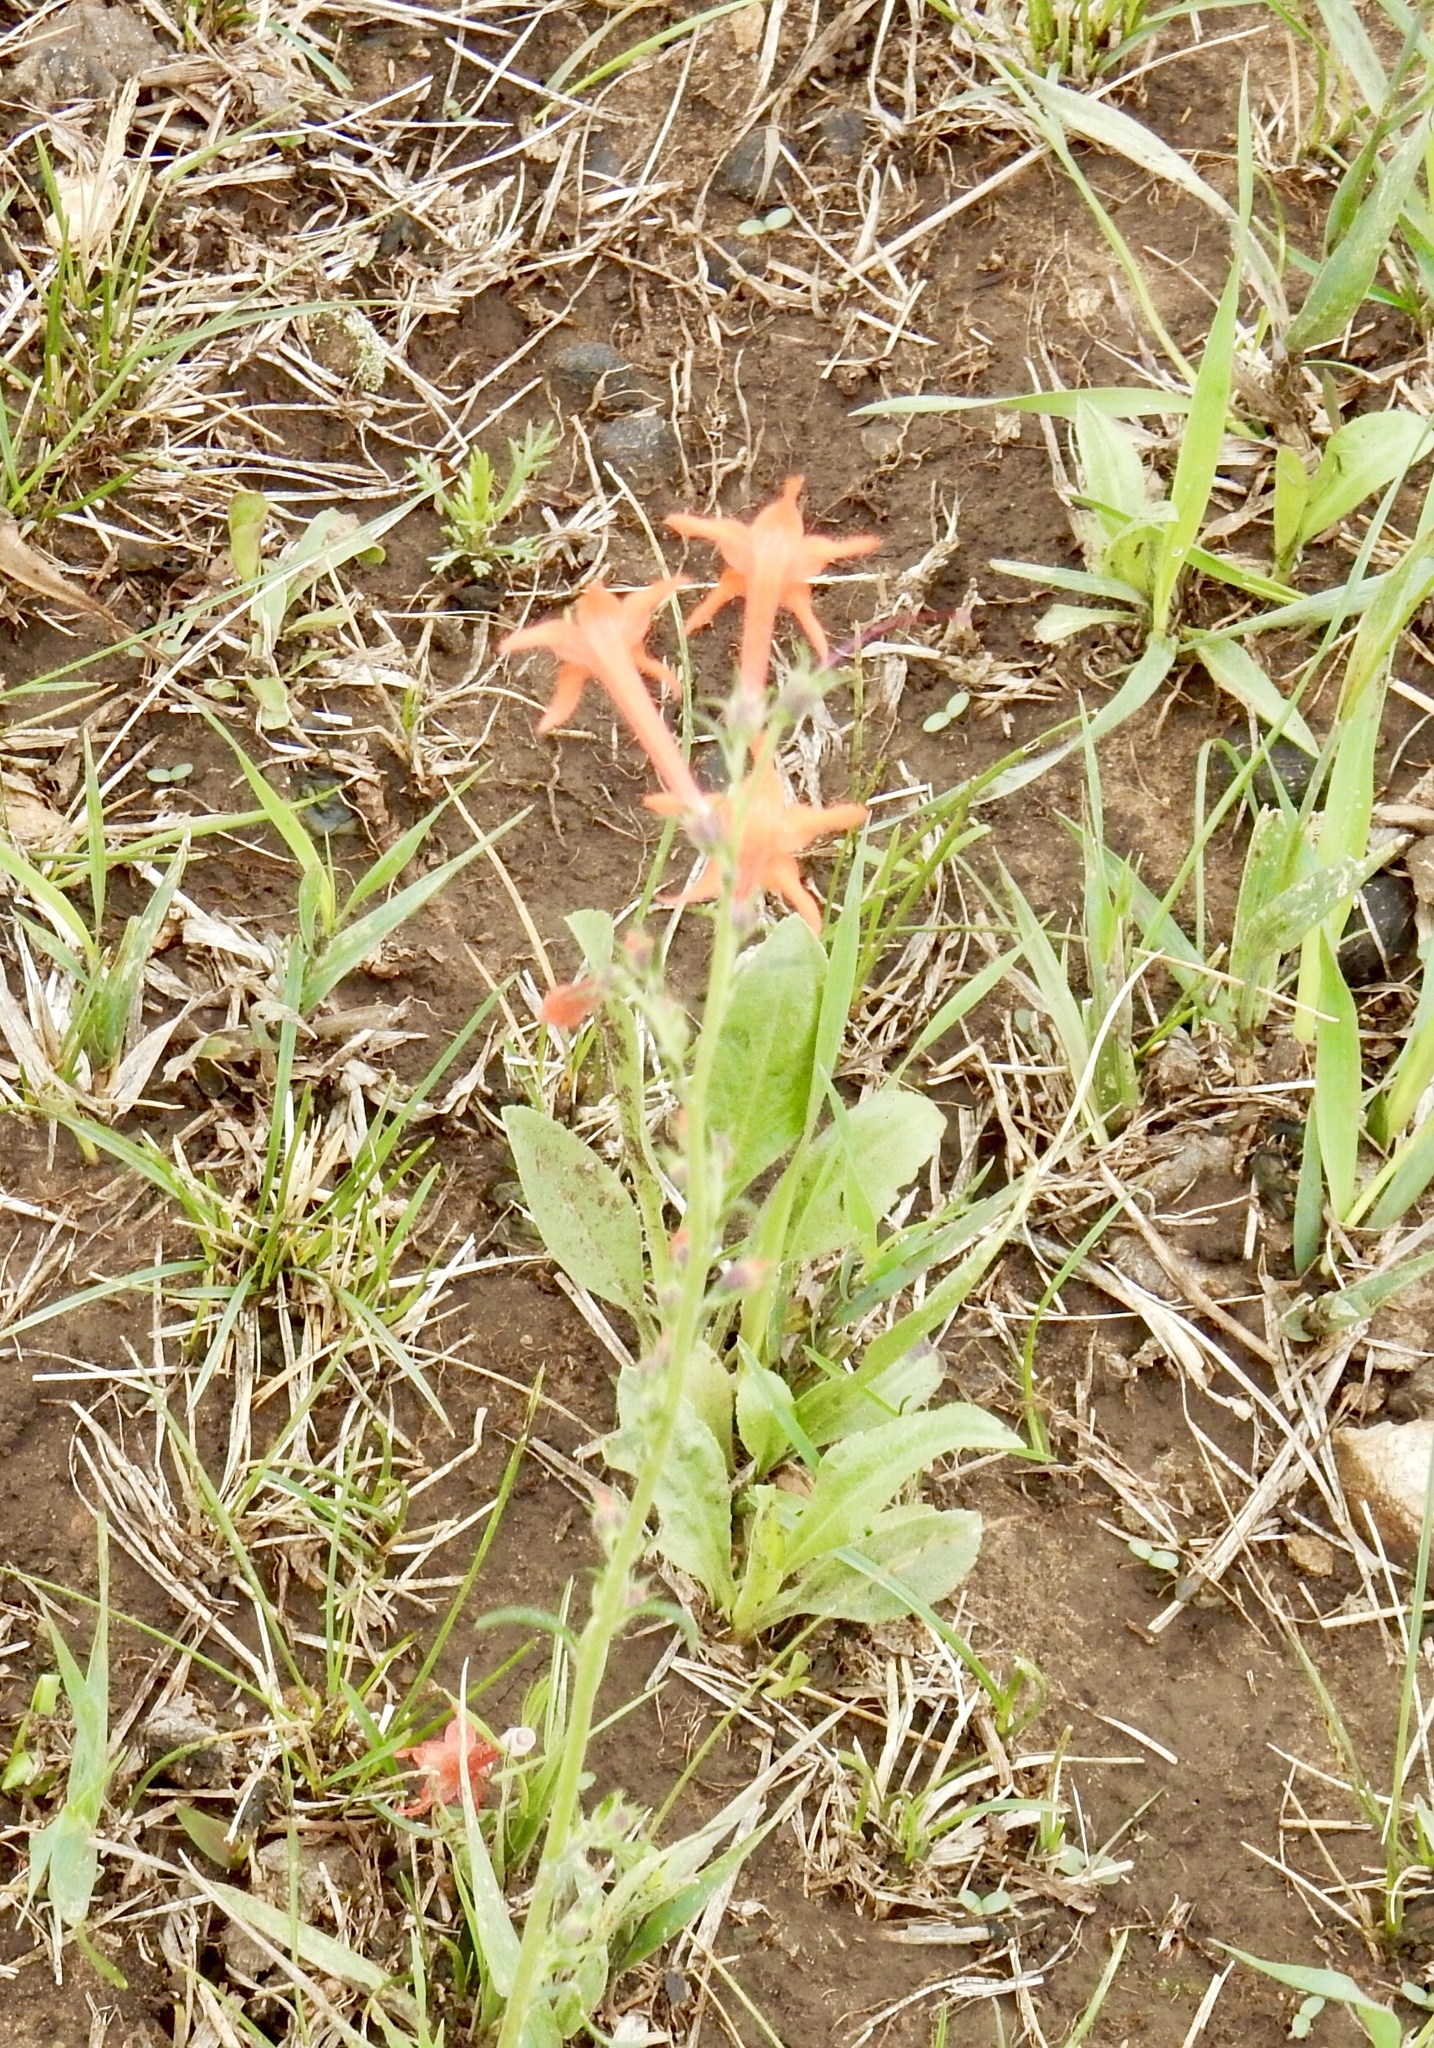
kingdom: Plantae
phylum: Tracheophyta
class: Magnoliopsida
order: Ericales
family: Polemoniaceae
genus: Ipomopsis
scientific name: Ipomopsis aggregata
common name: Scarlet gilia
